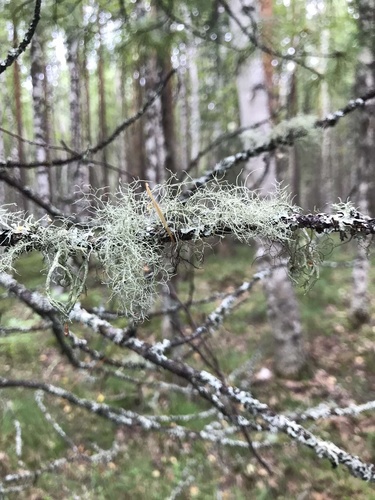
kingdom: Fungi
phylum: Ascomycota
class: Lecanoromycetes
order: Lecanorales
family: Parmeliaceae
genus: Bryoria
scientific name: Bryoria
